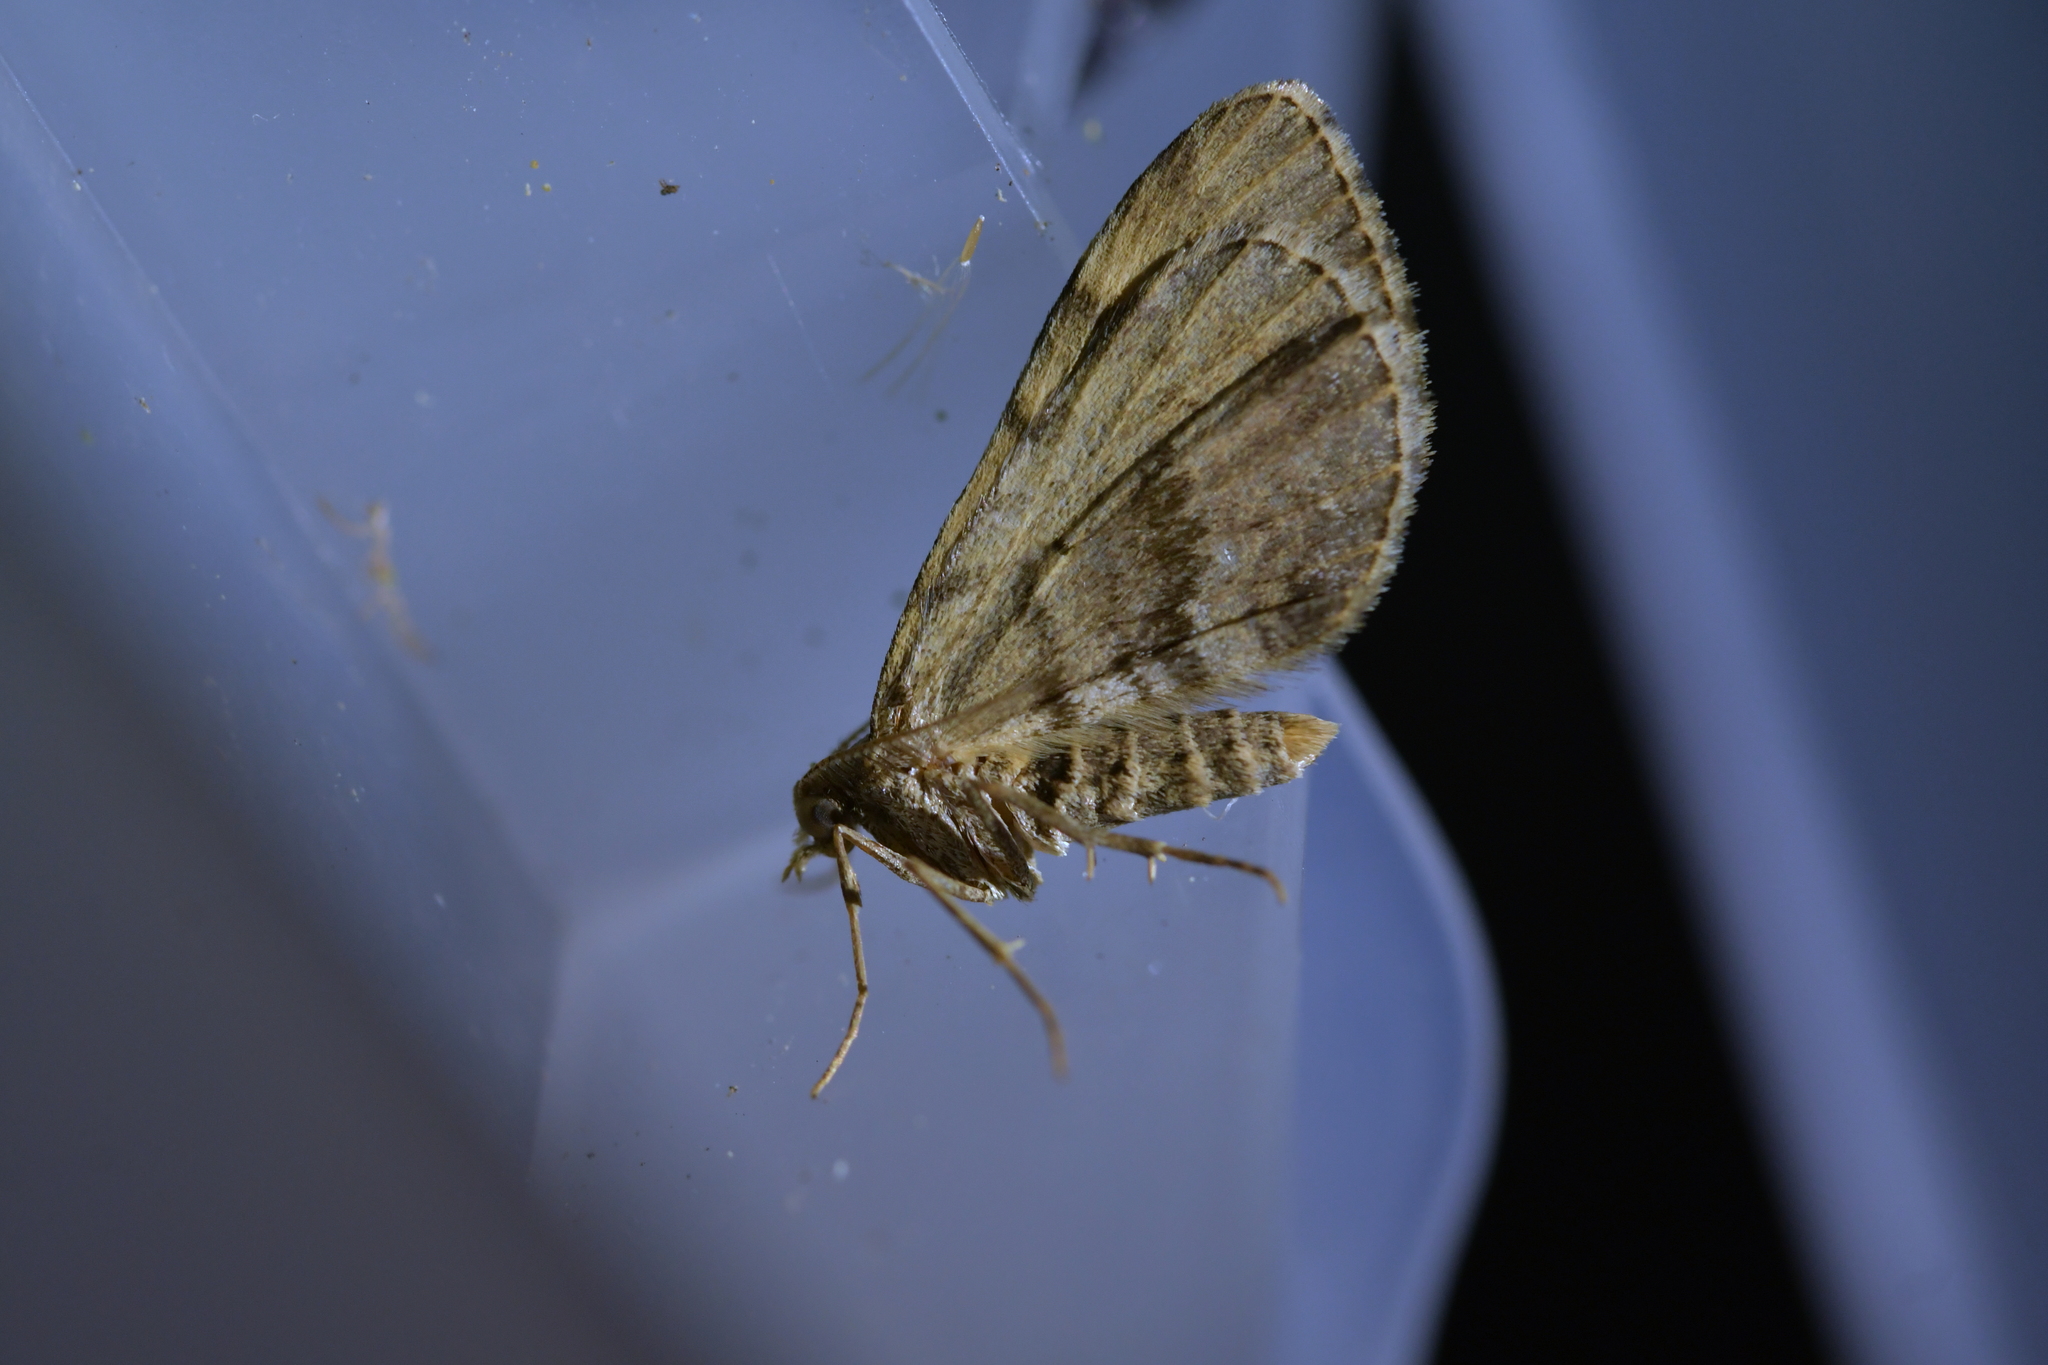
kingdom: Animalia
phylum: Arthropoda
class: Insecta
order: Lepidoptera
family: Geometridae
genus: Asaphodes
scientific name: Asaphodes aegrota
